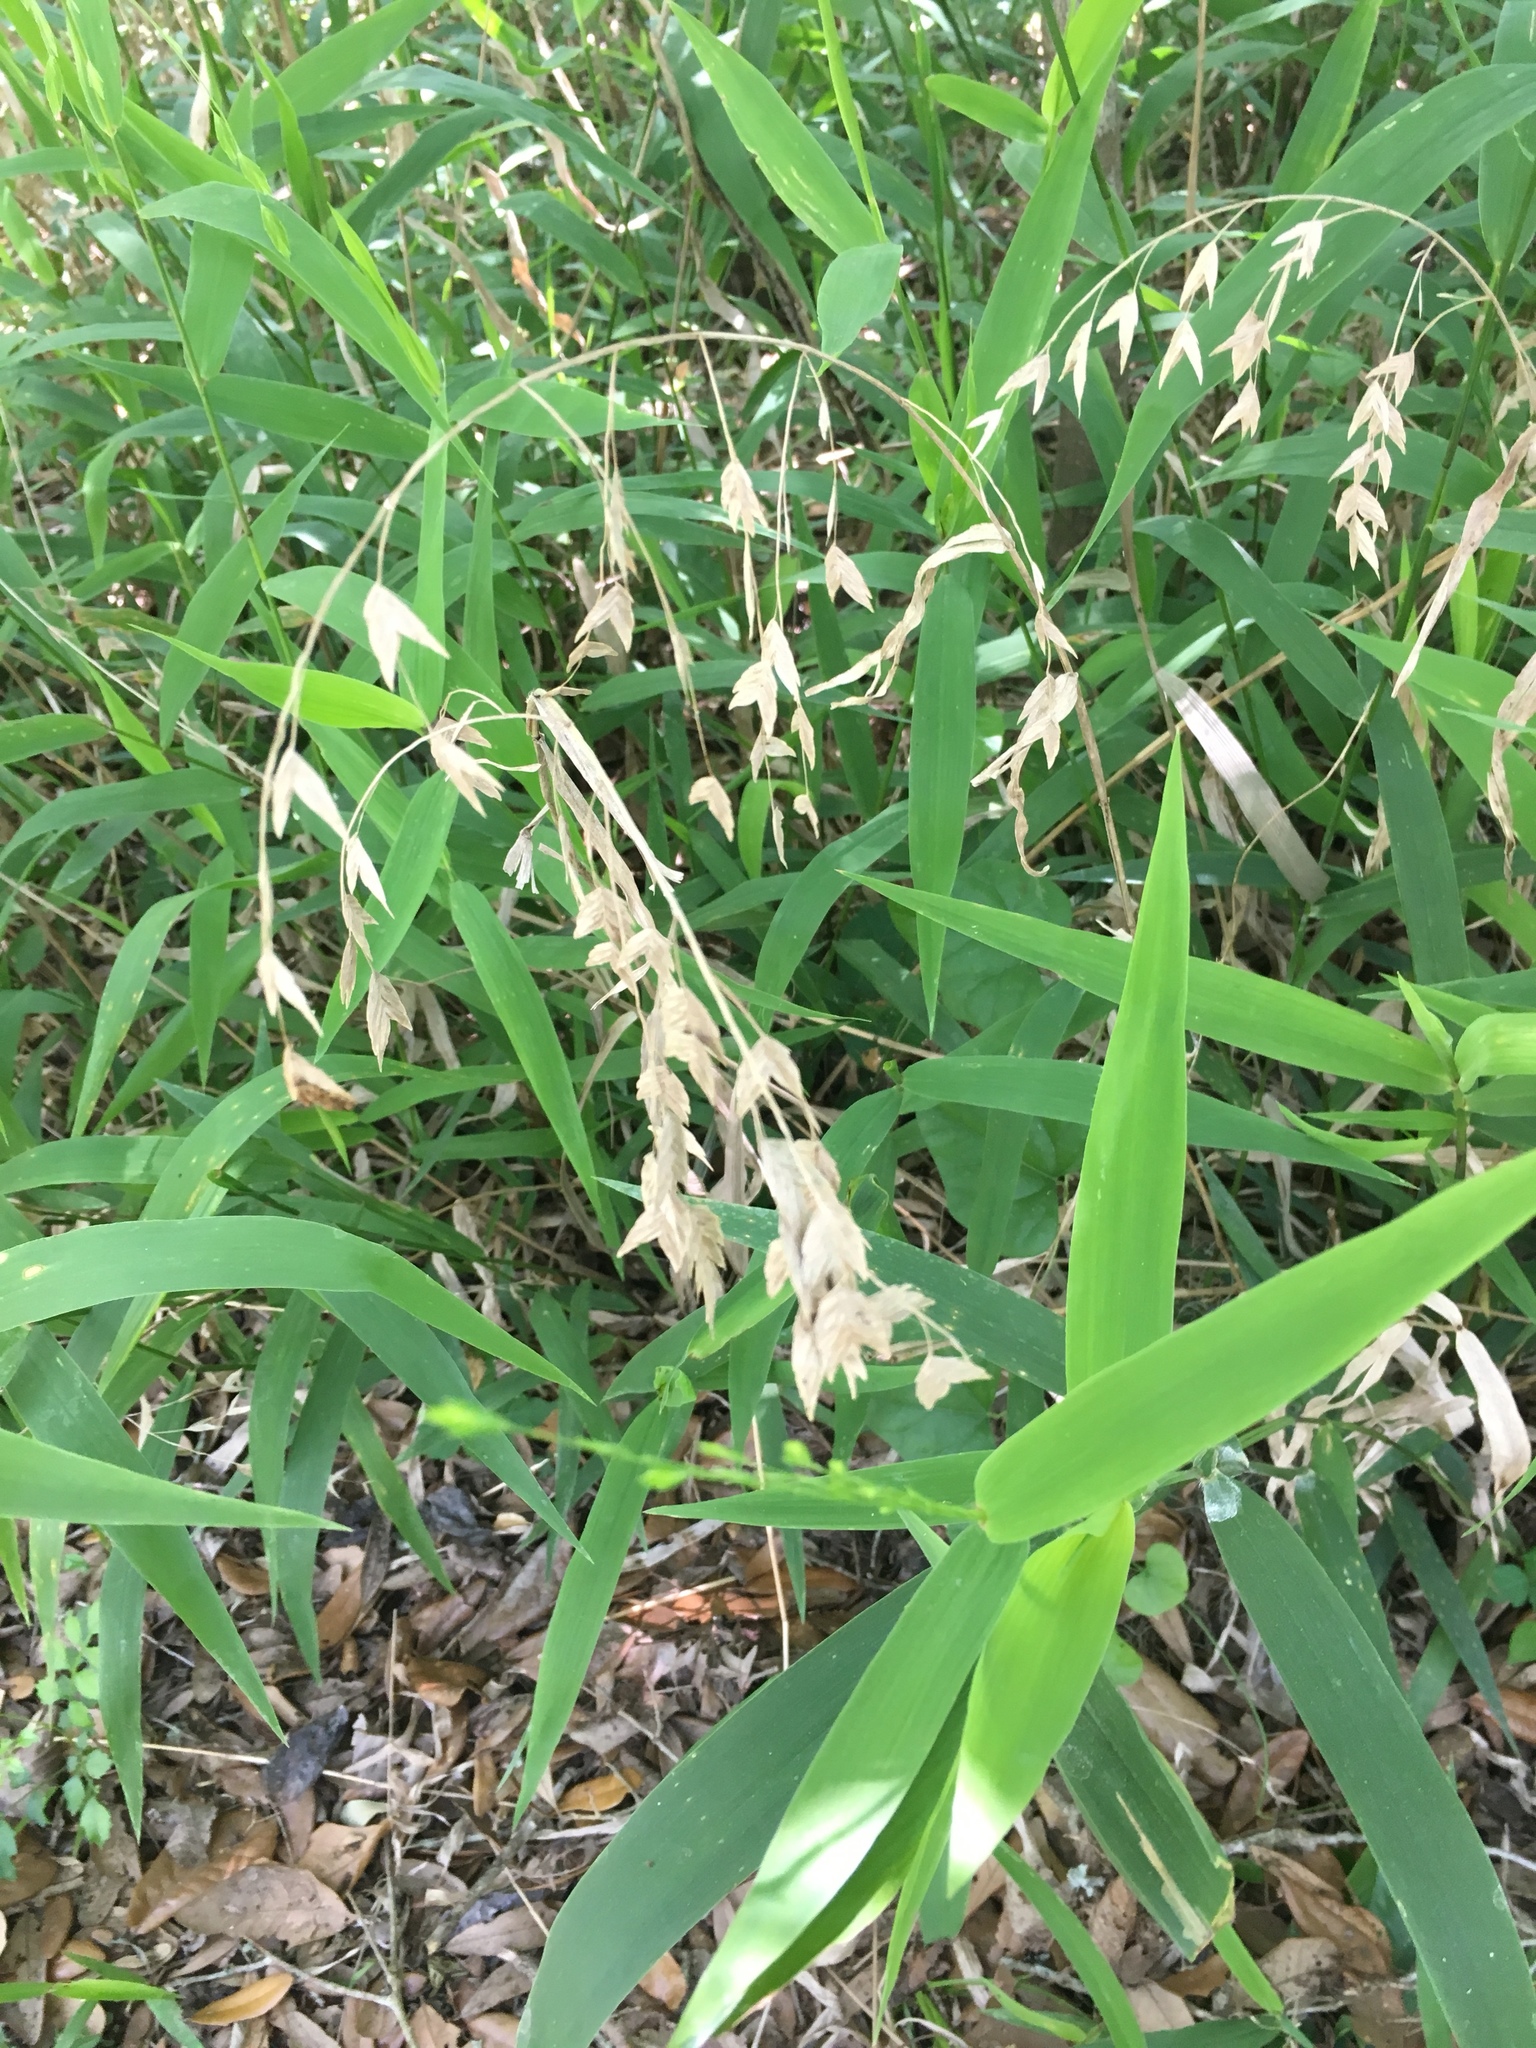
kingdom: Plantae
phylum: Tracheophyta
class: Liliopsida
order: Poales
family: Poaceae
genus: Chasmanthium
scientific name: Chasmanthium latifolium
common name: Broad-leaved chasmanthium
